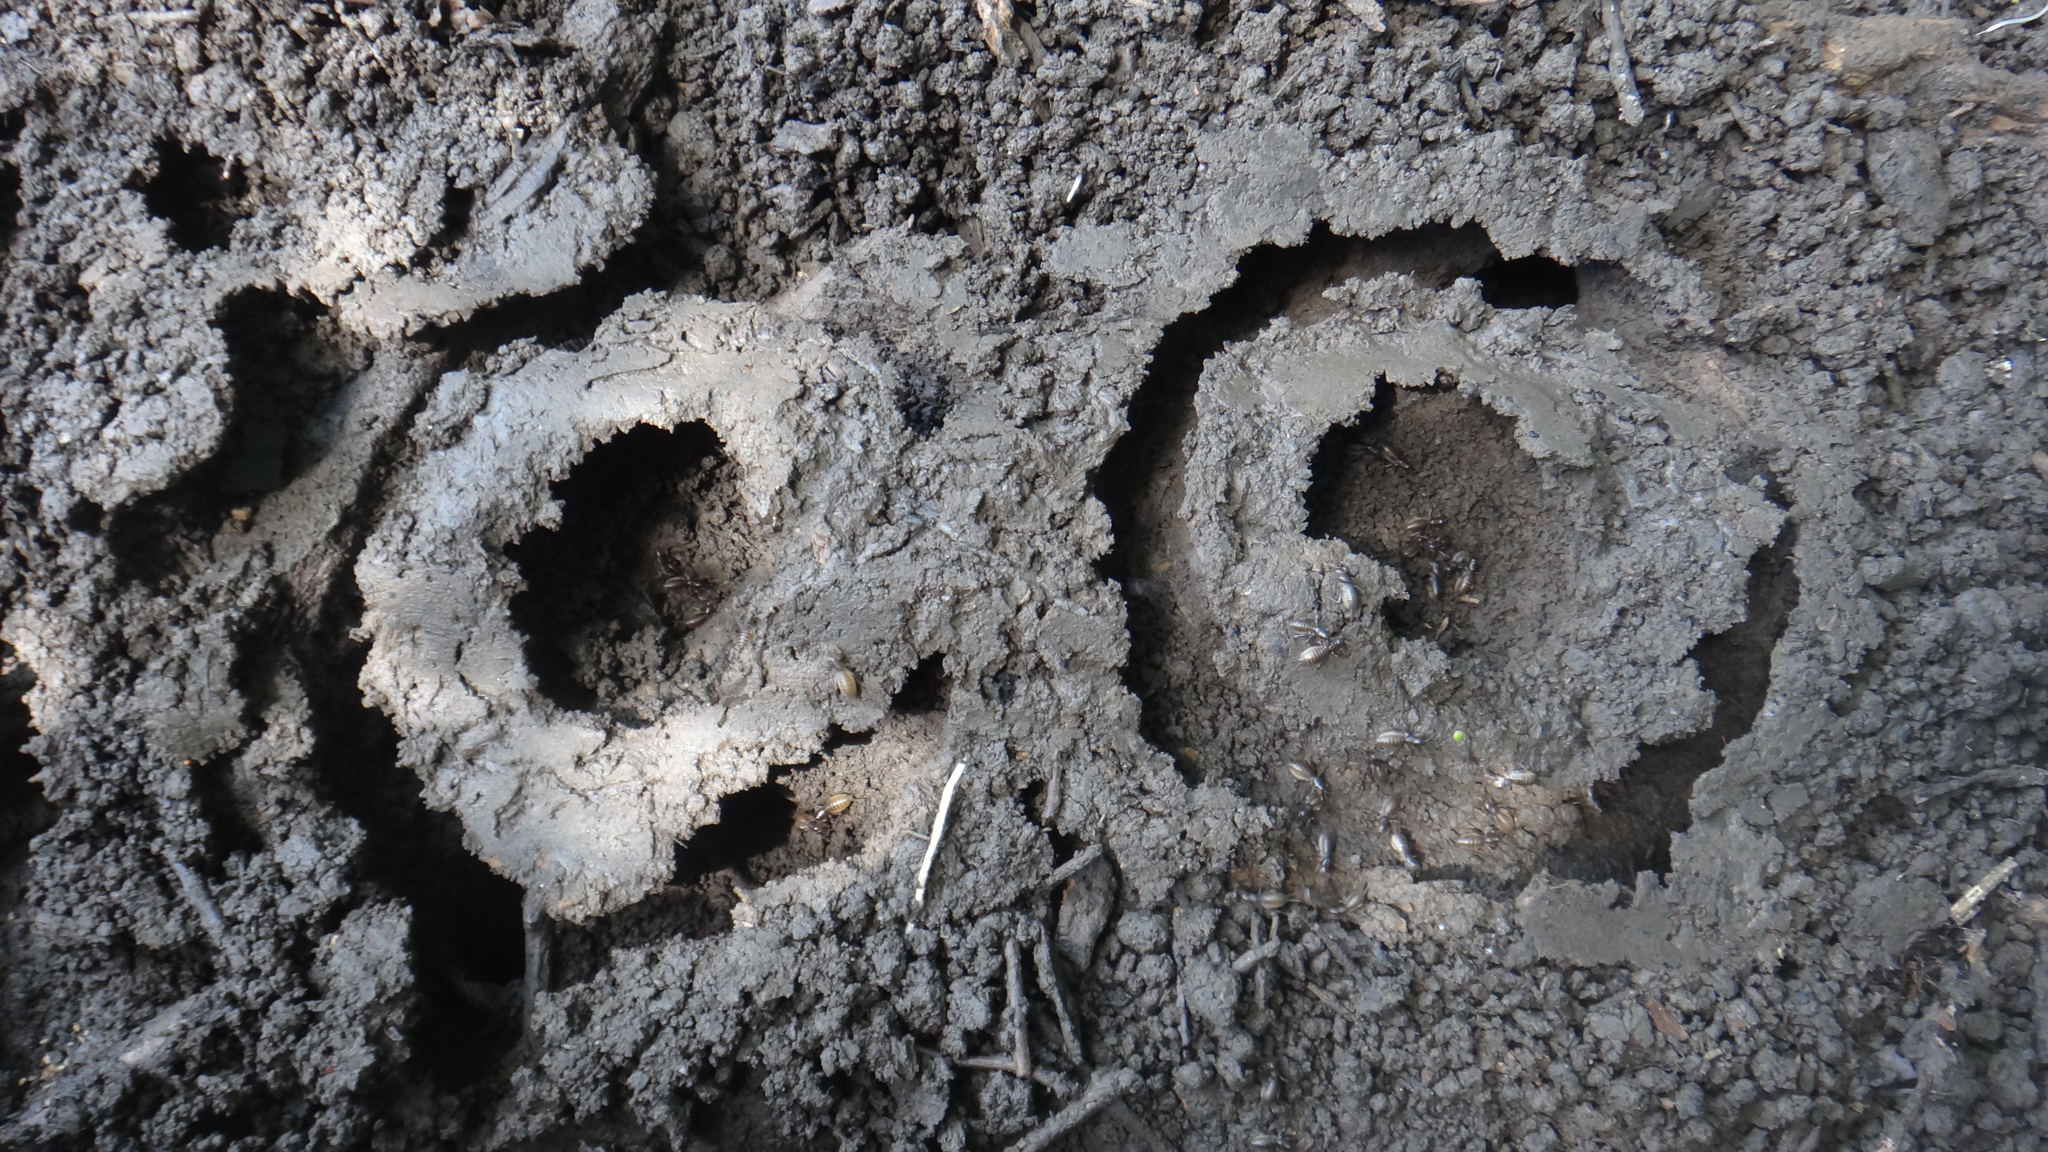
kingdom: Animalia
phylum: Arthropoda
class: Insecta
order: Orthoptera
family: Gryllotalpidae
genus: Gryllotalpa
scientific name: Gryllotalpa gryllotalpa
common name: European mole cricket
